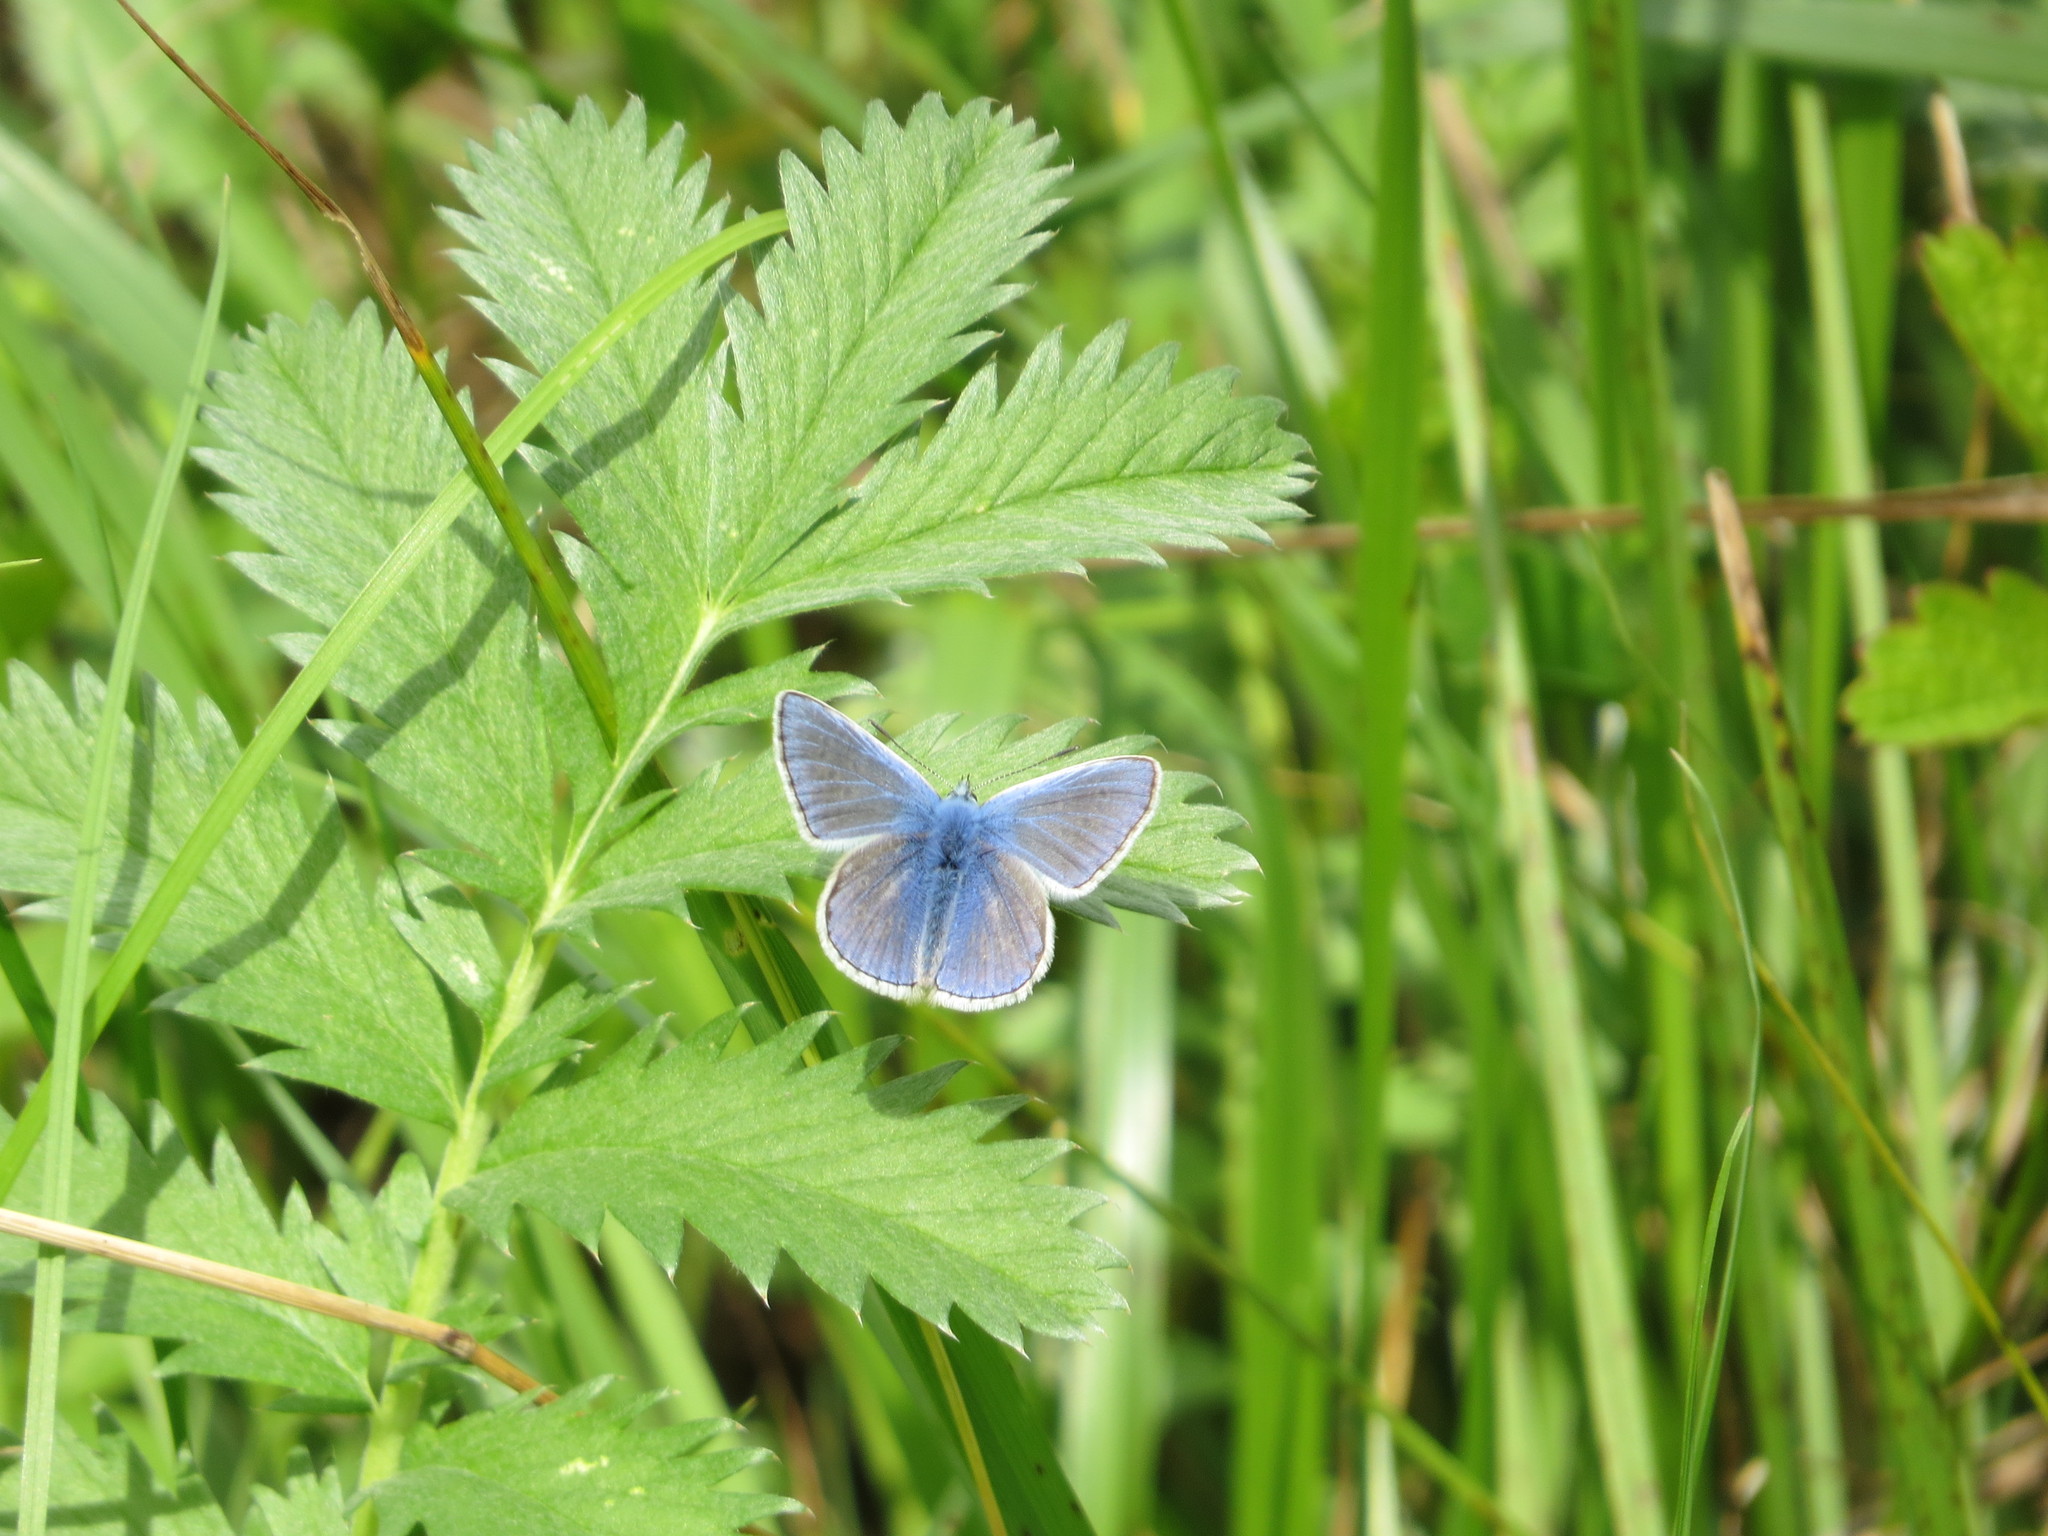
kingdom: Animalia
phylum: Arthropoda
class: Insecta
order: Lepidoptera
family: Lycaenidae
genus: Polyommatus
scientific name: Polyommatus icarus
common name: Common blue
